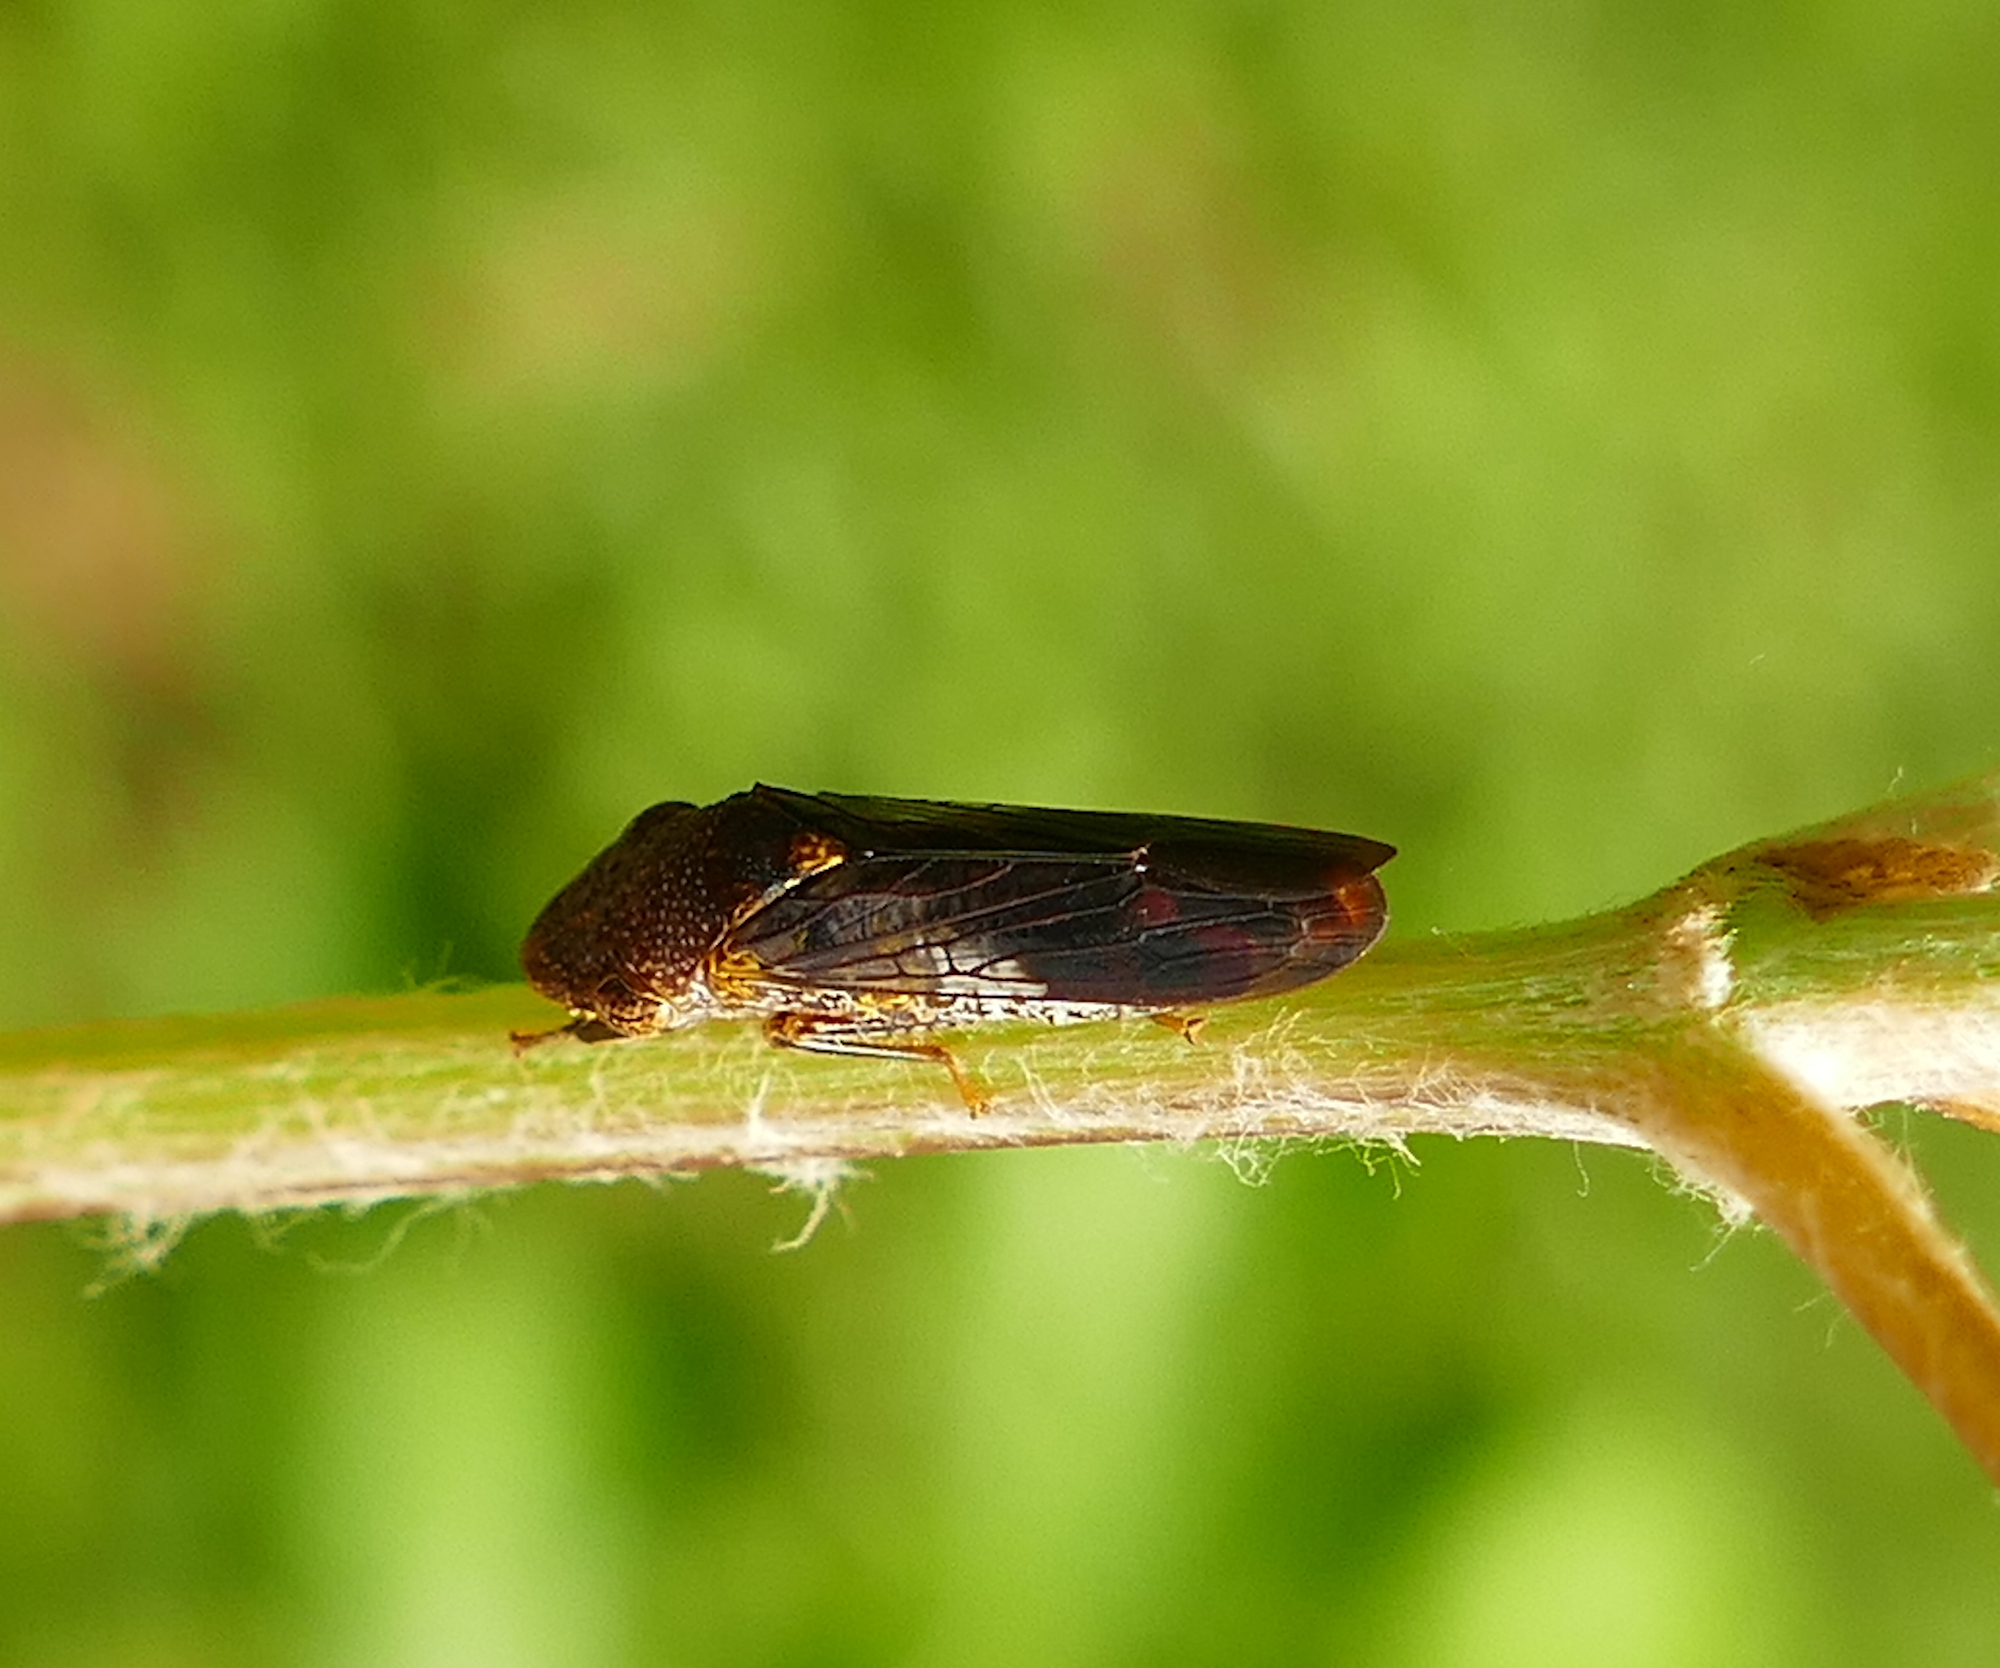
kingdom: Animalia
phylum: Arthropoda
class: Insecta
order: Hemiptera
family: Cicadellidae
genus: Homalodisca
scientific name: Homalodisca vitripennis
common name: Glassy-winged sharpshooter
